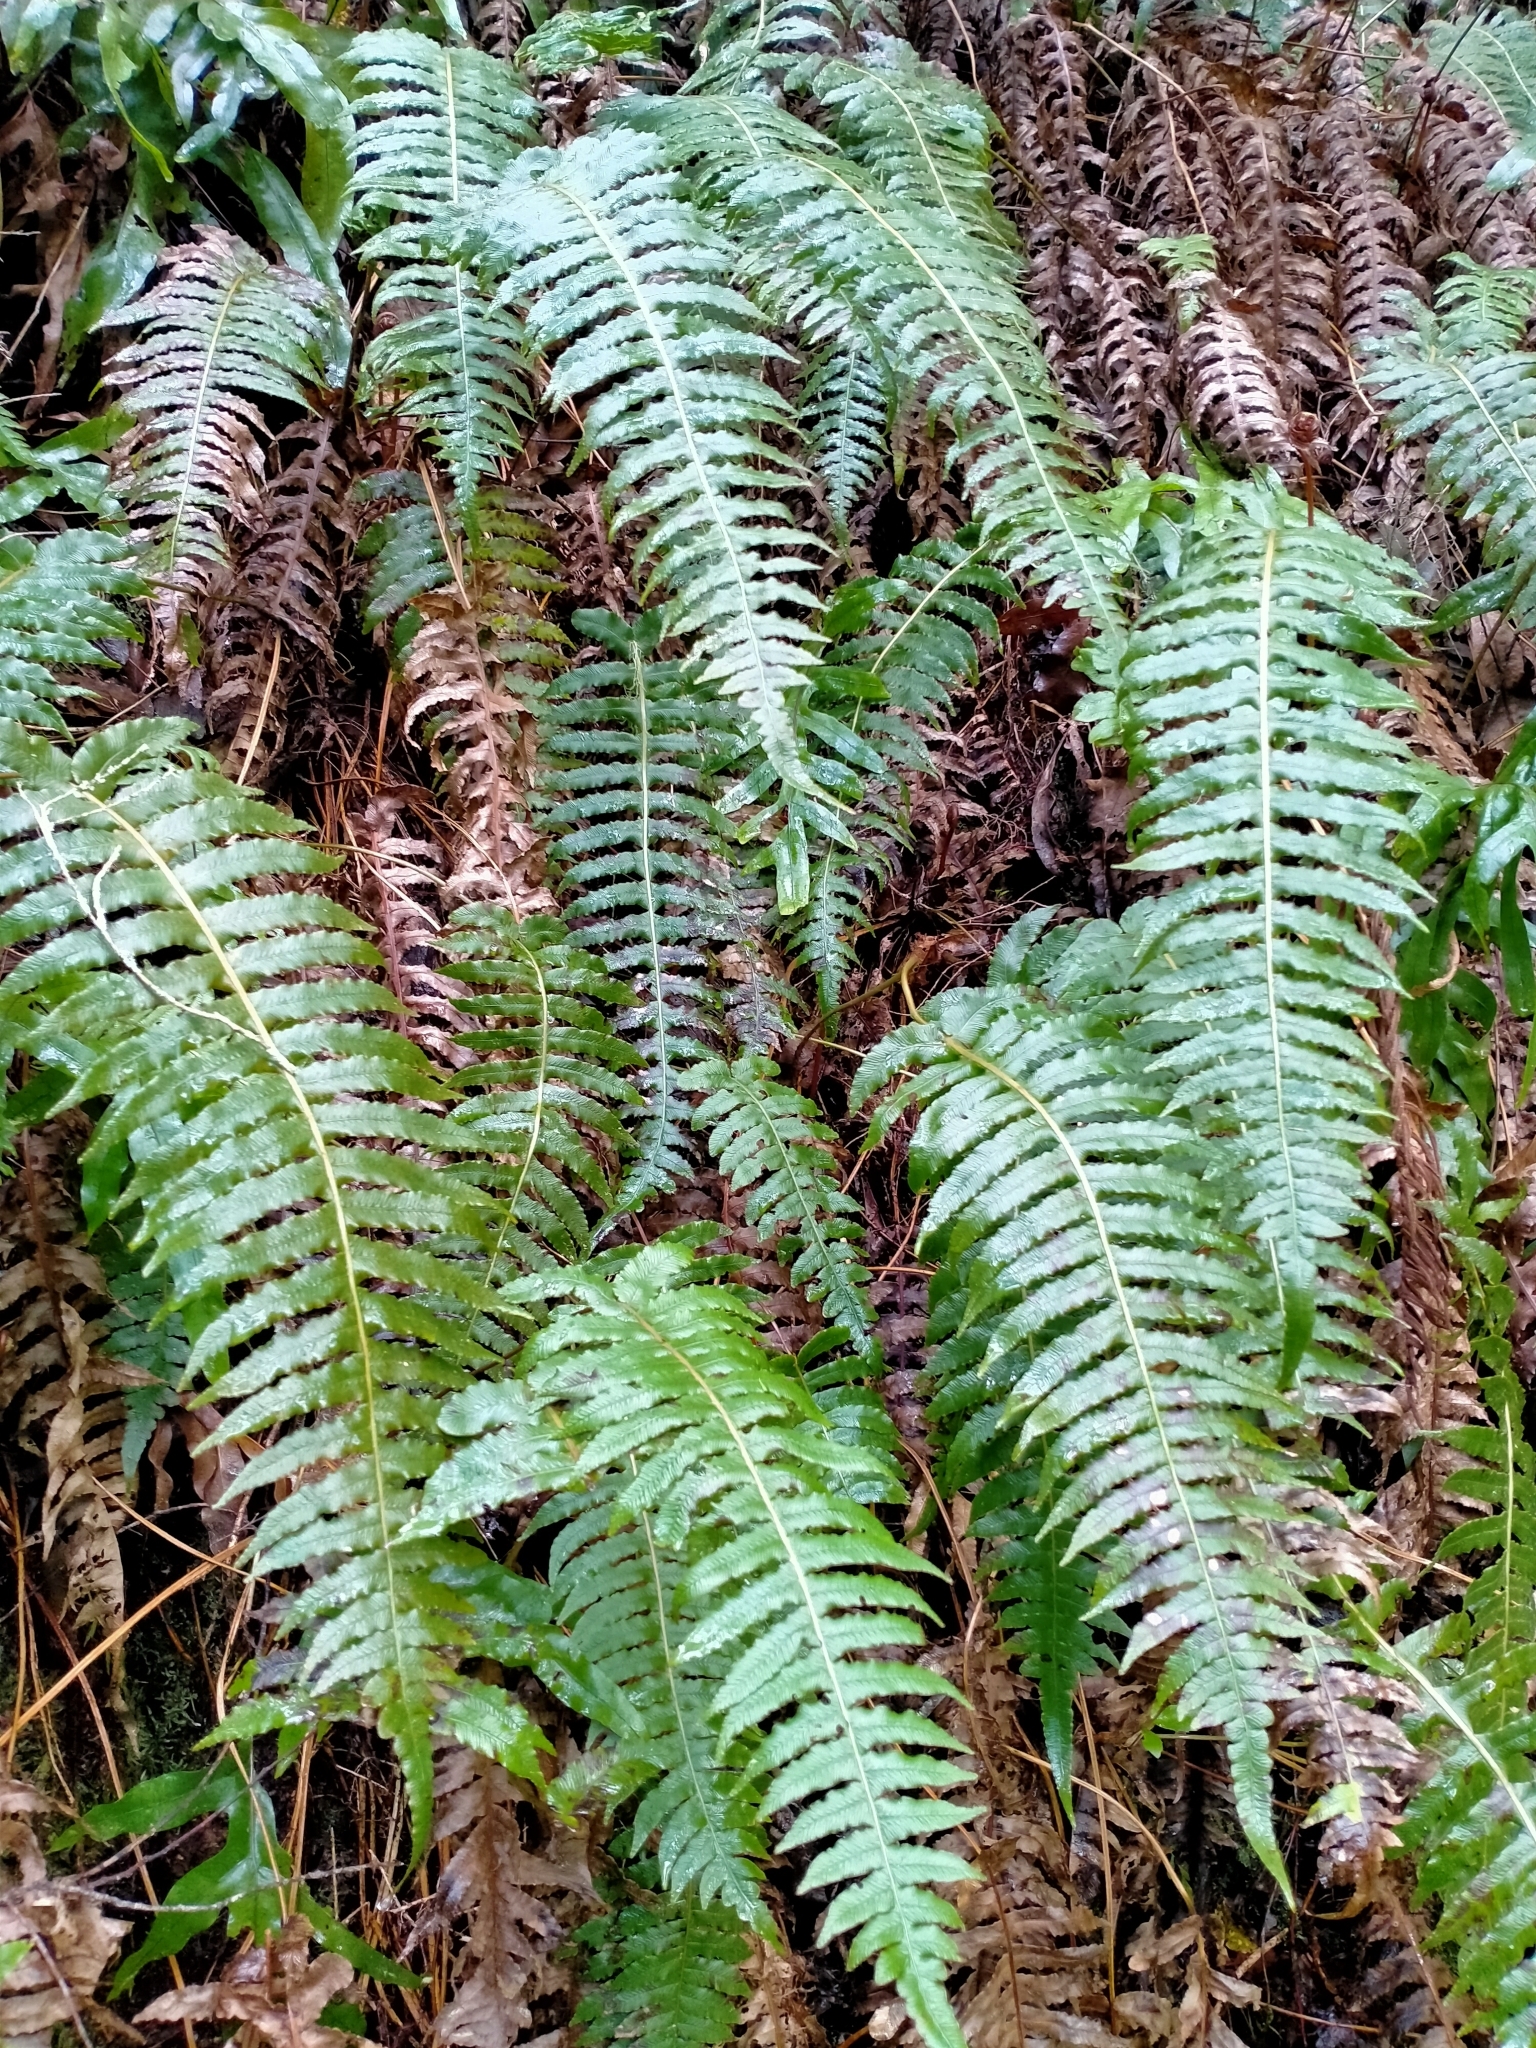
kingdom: Plantae
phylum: Tracheophyta
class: Polypodiopsida
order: Polypodiales
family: Blechnaceae
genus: Cranfillia
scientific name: Cranfillia deltoides
